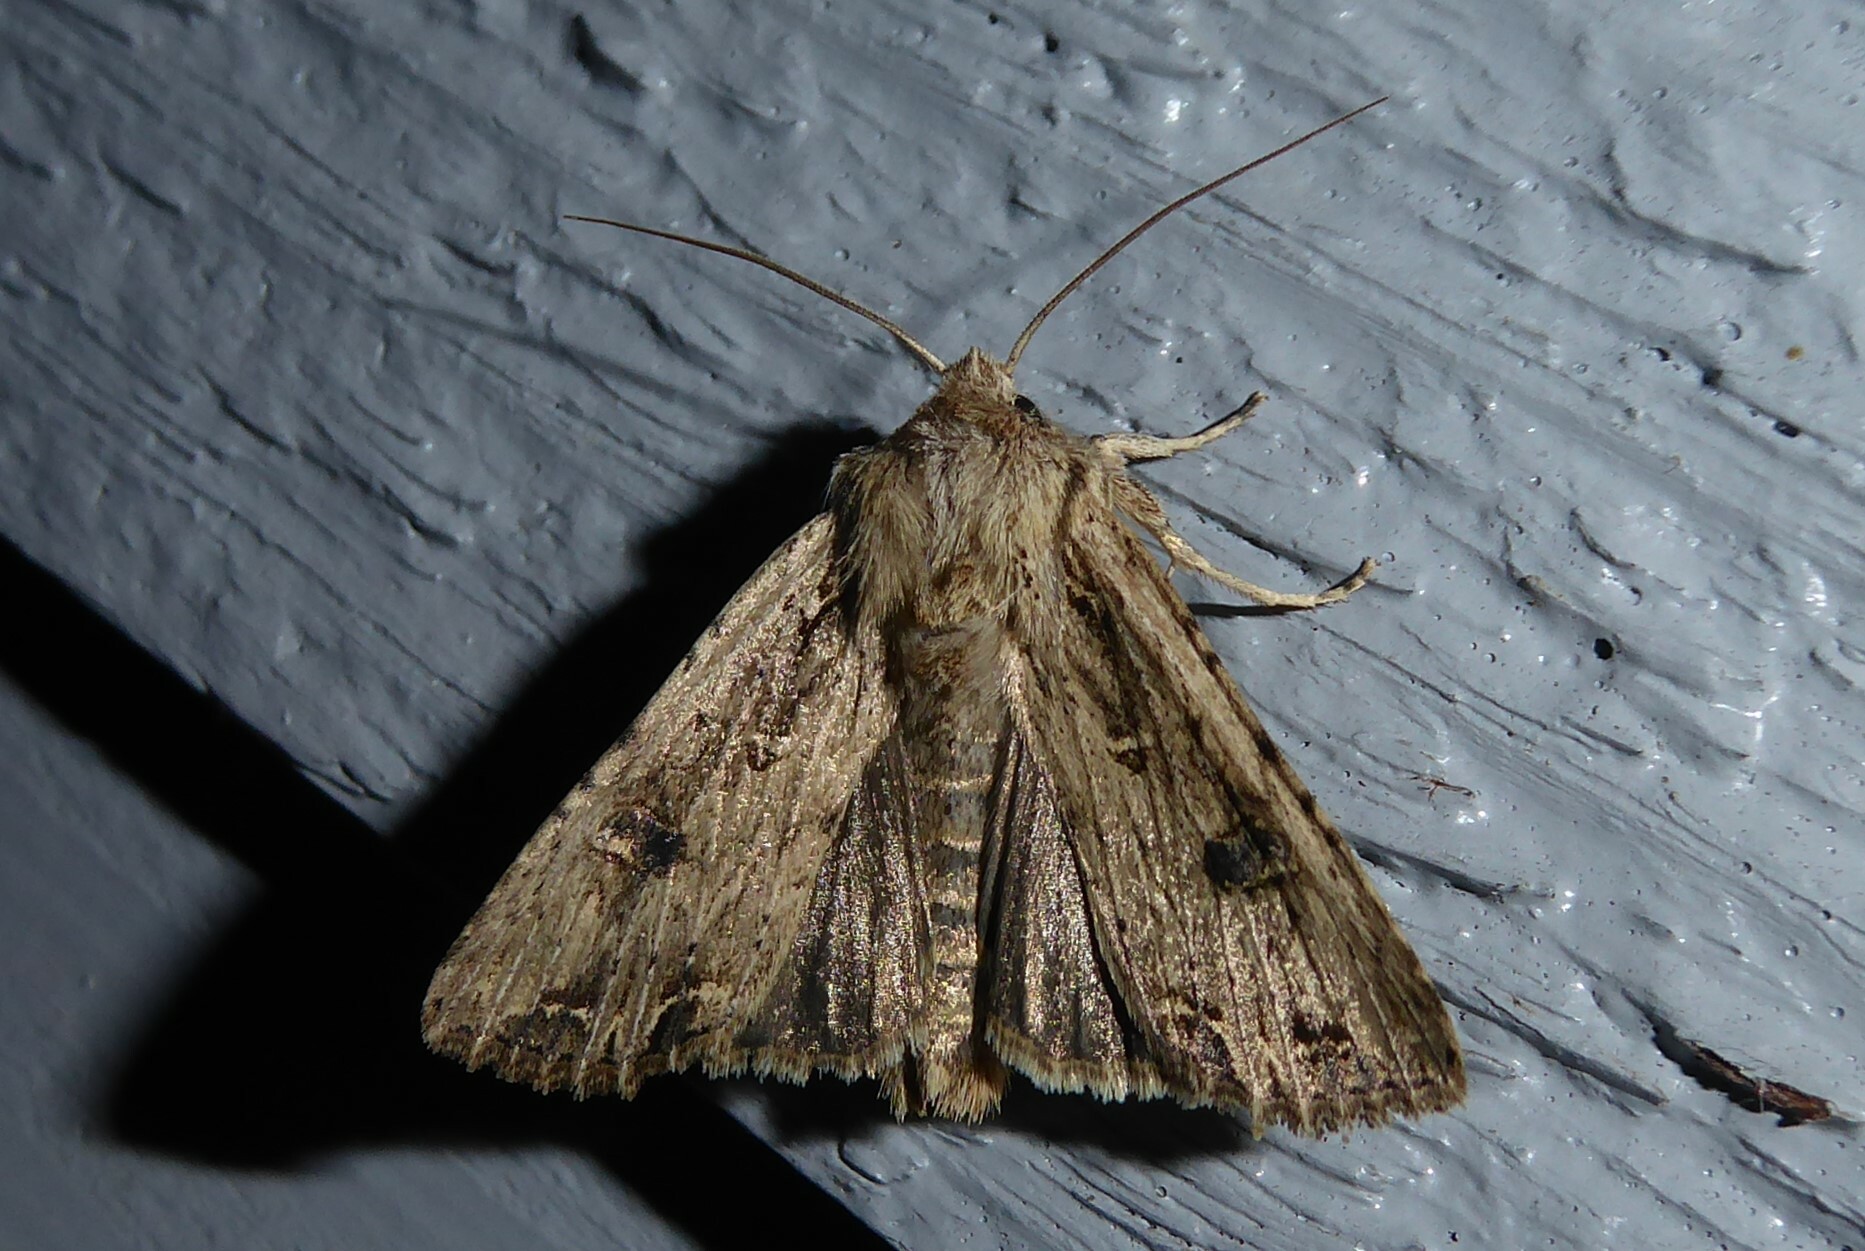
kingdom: Animalia
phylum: Arthropoda
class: Insecta
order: Lepidoptera
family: Noctuidae
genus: Ichneutica
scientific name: Ichneutica lignana
